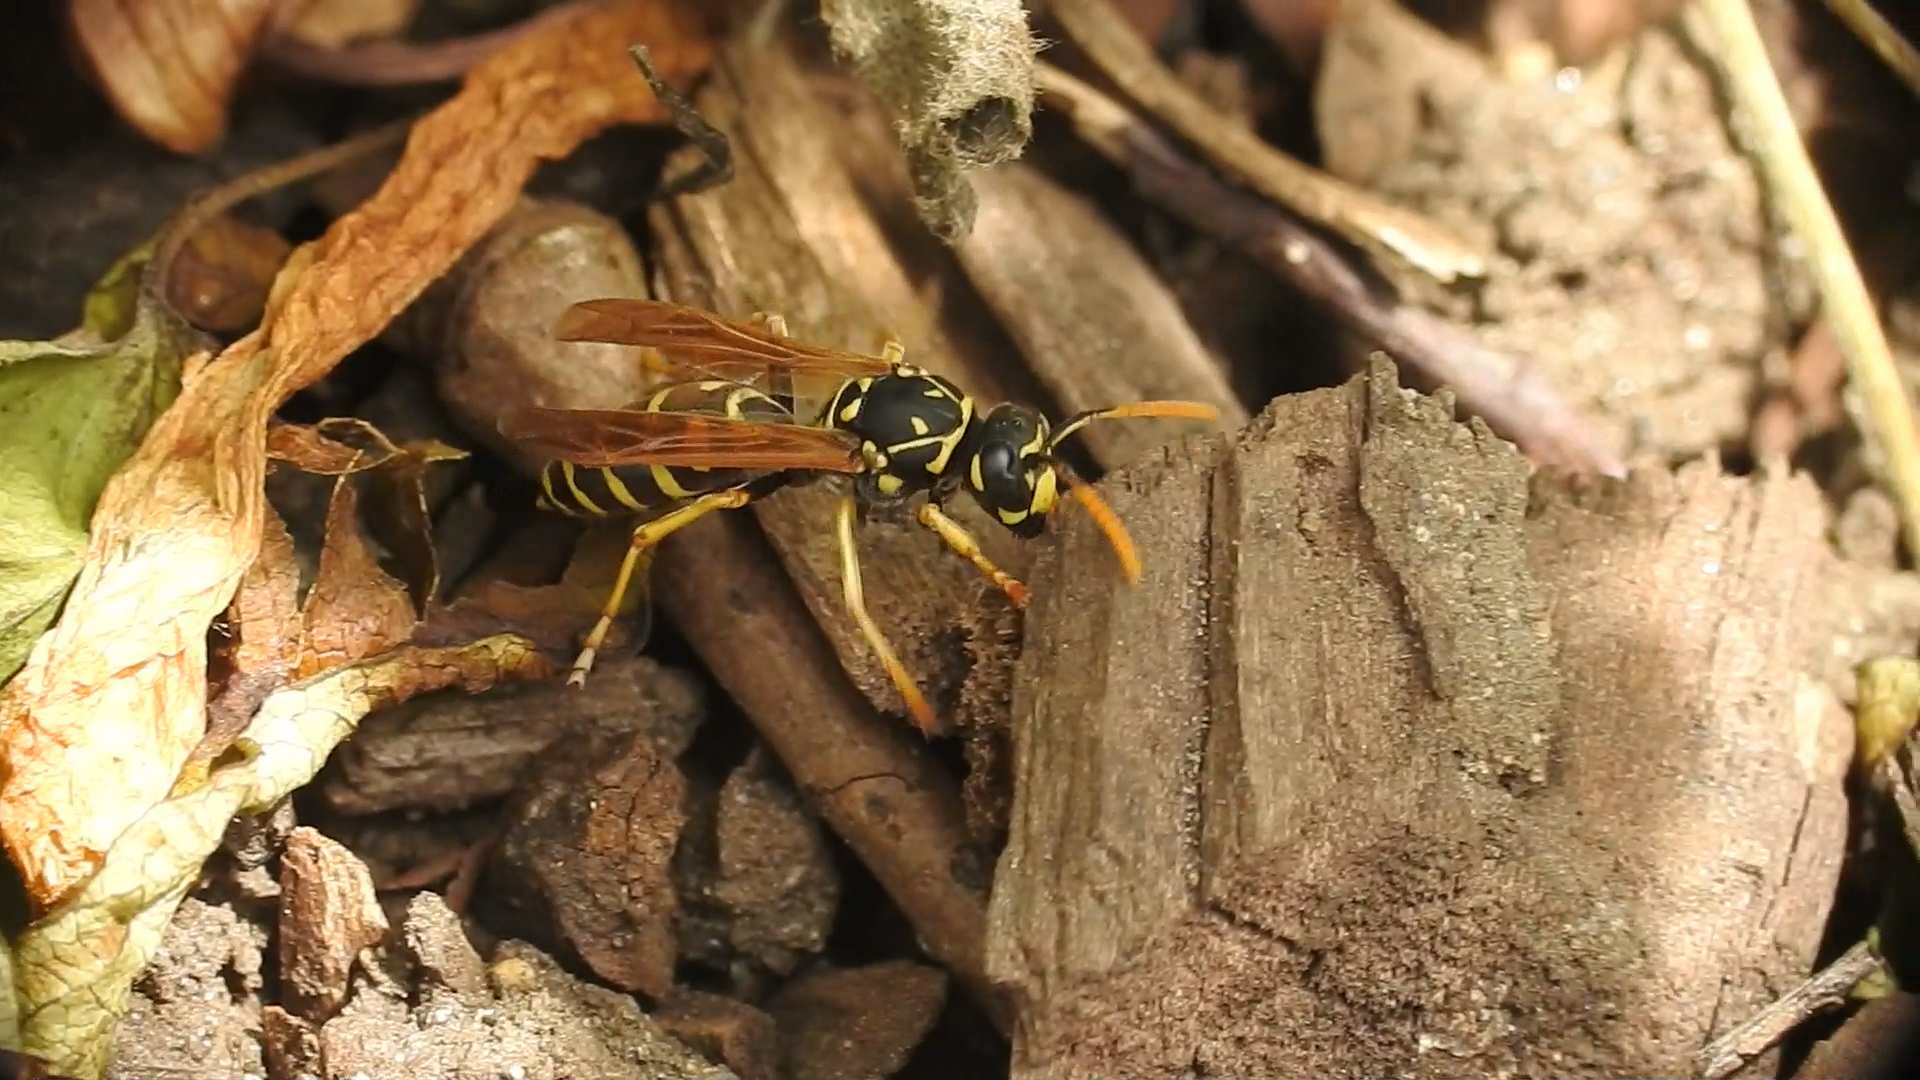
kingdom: Animalia
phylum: Arthropoda
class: Insecta
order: Hymenoptera
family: Eumenidae
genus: Polistes
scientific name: Polistes dominula
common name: Paper wasp
